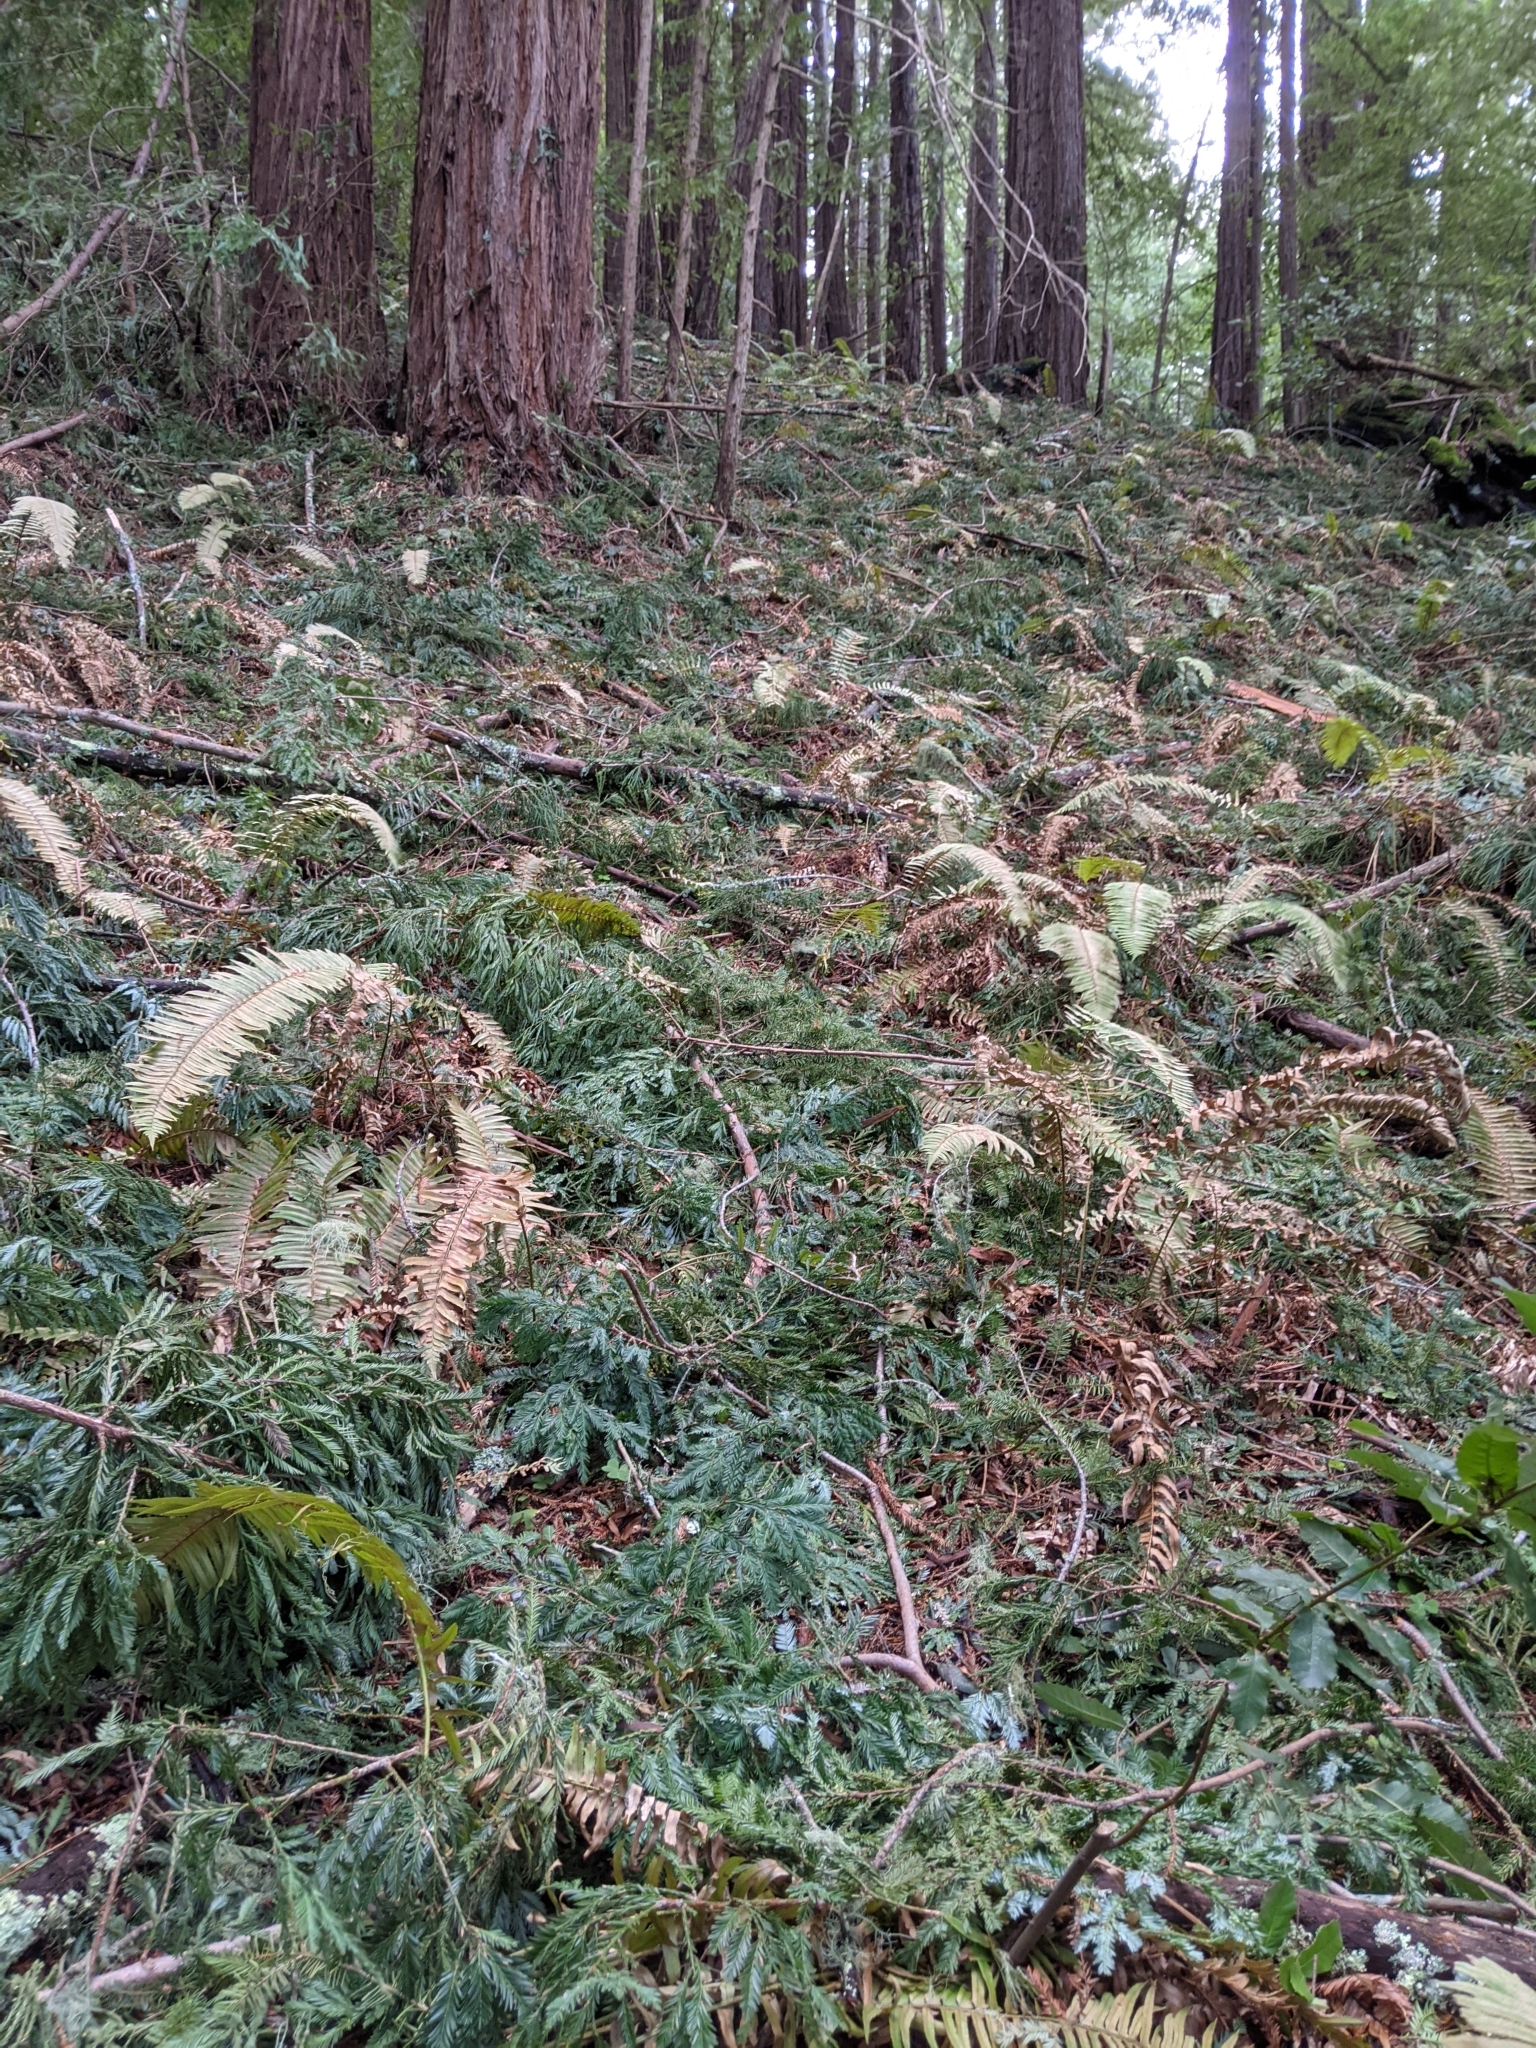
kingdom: Plantae
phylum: Tracheophyta
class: Pinopsida
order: Pinales
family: Cupressaceae
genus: Sequoia
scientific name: Sequoia sempervirens
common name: Coast redwood
